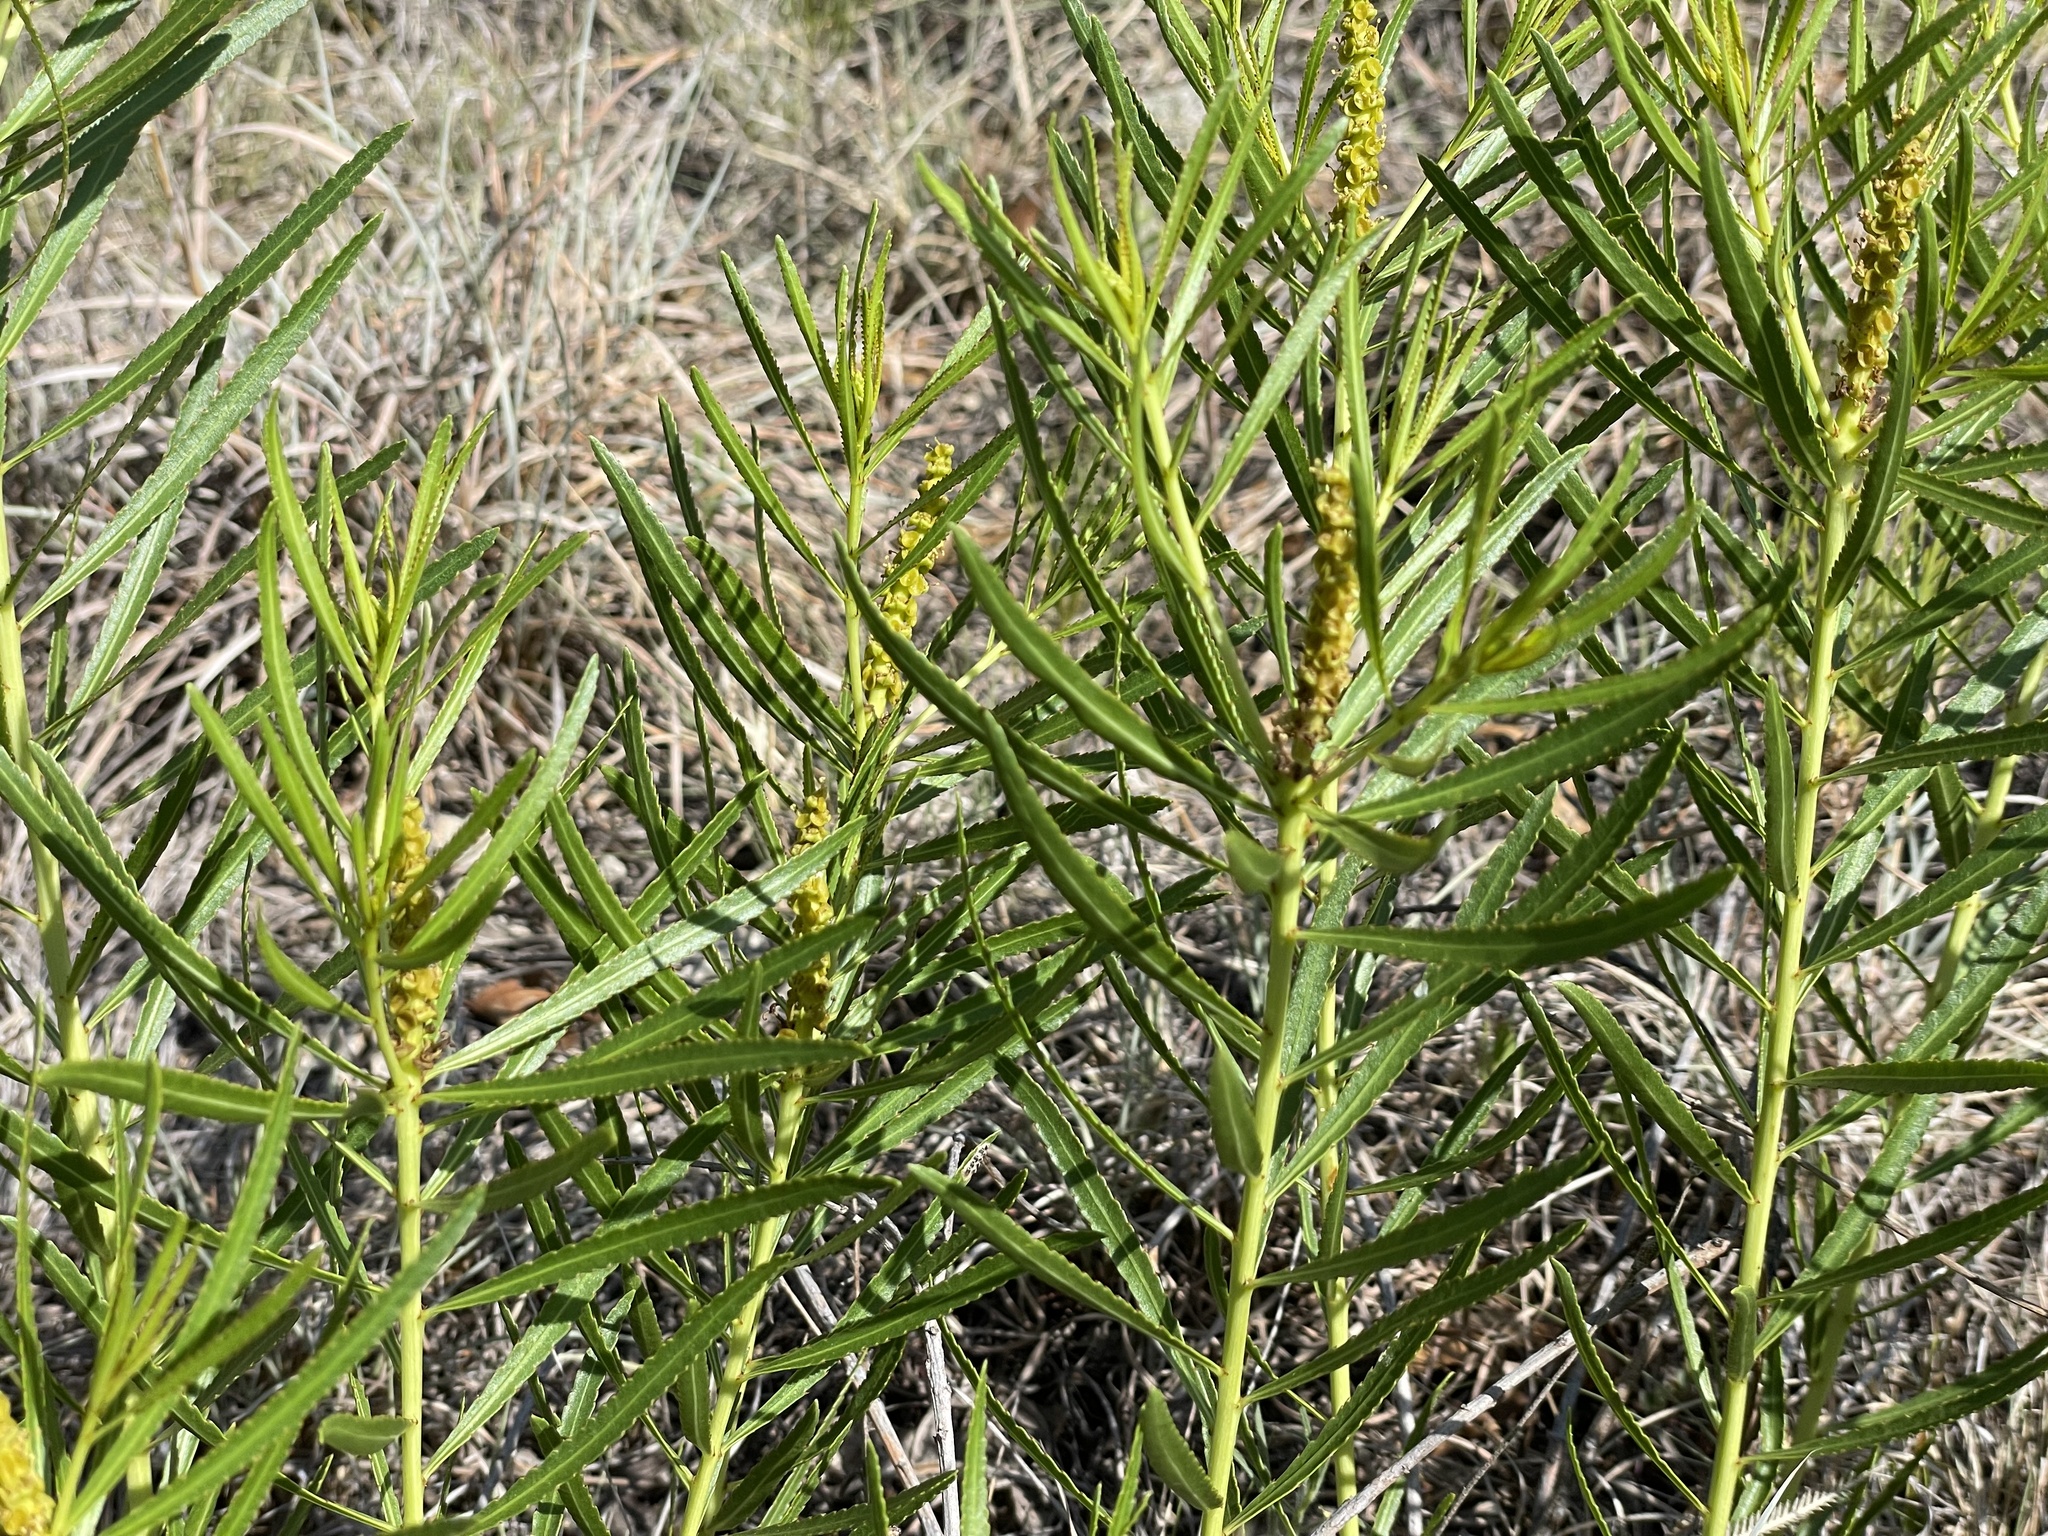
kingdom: Plantae
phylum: Tracheophyta
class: Magnoliopsida
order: Malpighiales
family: Euphorbiaceae
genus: Stillingia
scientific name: Stillingia texana
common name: Texas stillingia
